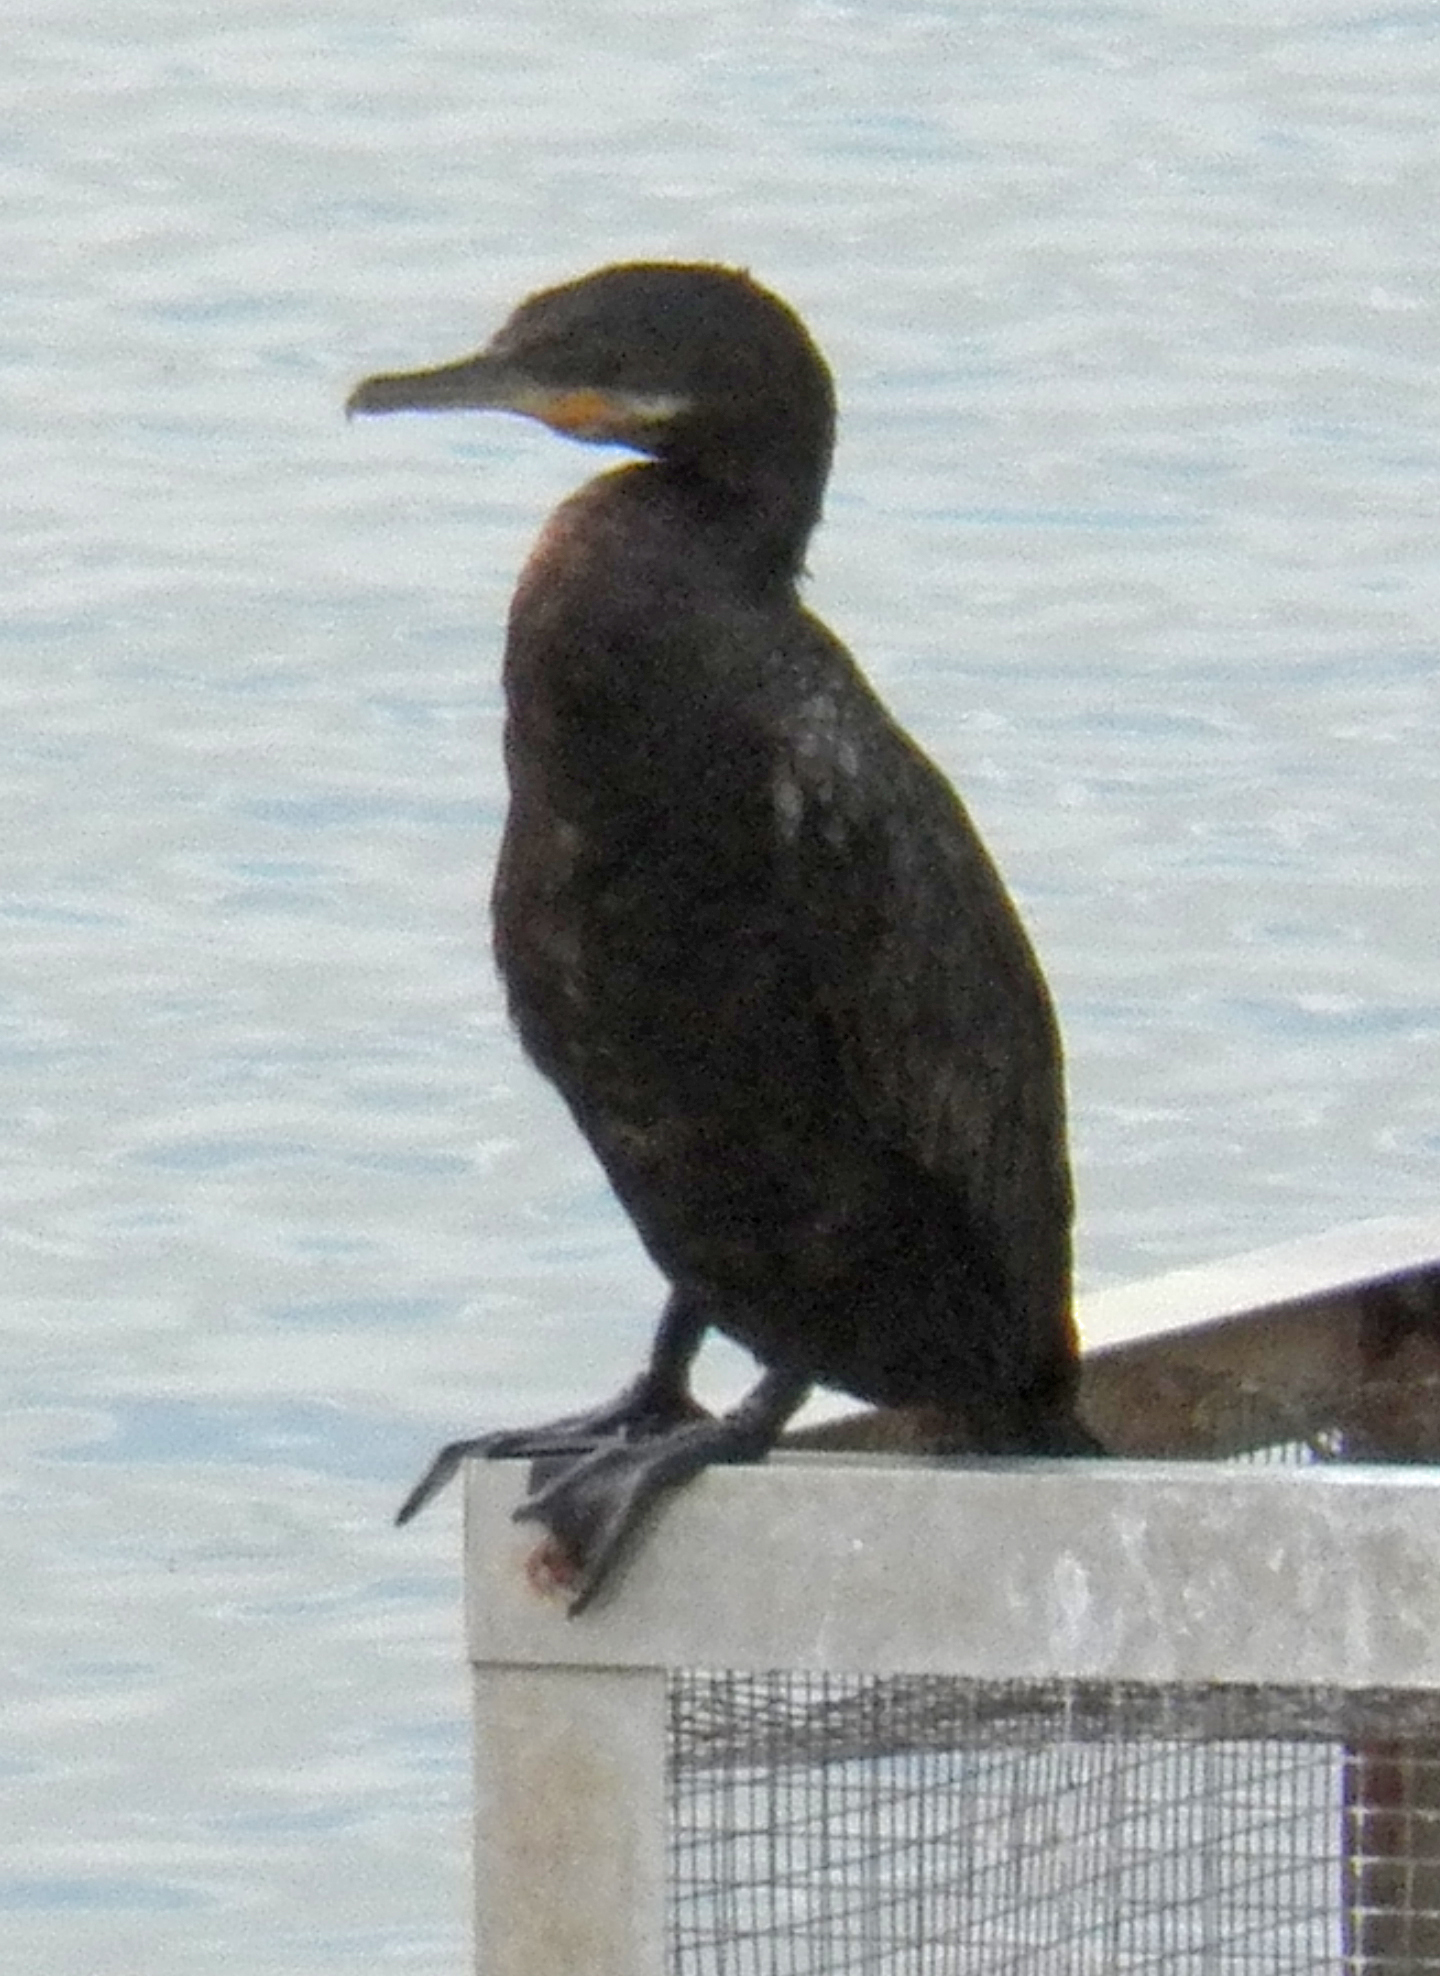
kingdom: Animalia
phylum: Chordata
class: Aves
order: Suliformes
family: Phalacrocoracidae
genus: Phalacrocorax
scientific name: Phalacrocorax brasilianus
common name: Neotropic cormorant
